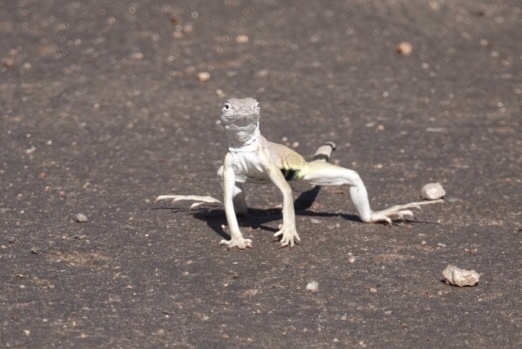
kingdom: Animalia
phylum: Chordata
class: Squamata
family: Phrynosomatidae
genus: Callisaurus
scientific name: Callisaurus draconoides
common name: Zebra-tailed lizard
